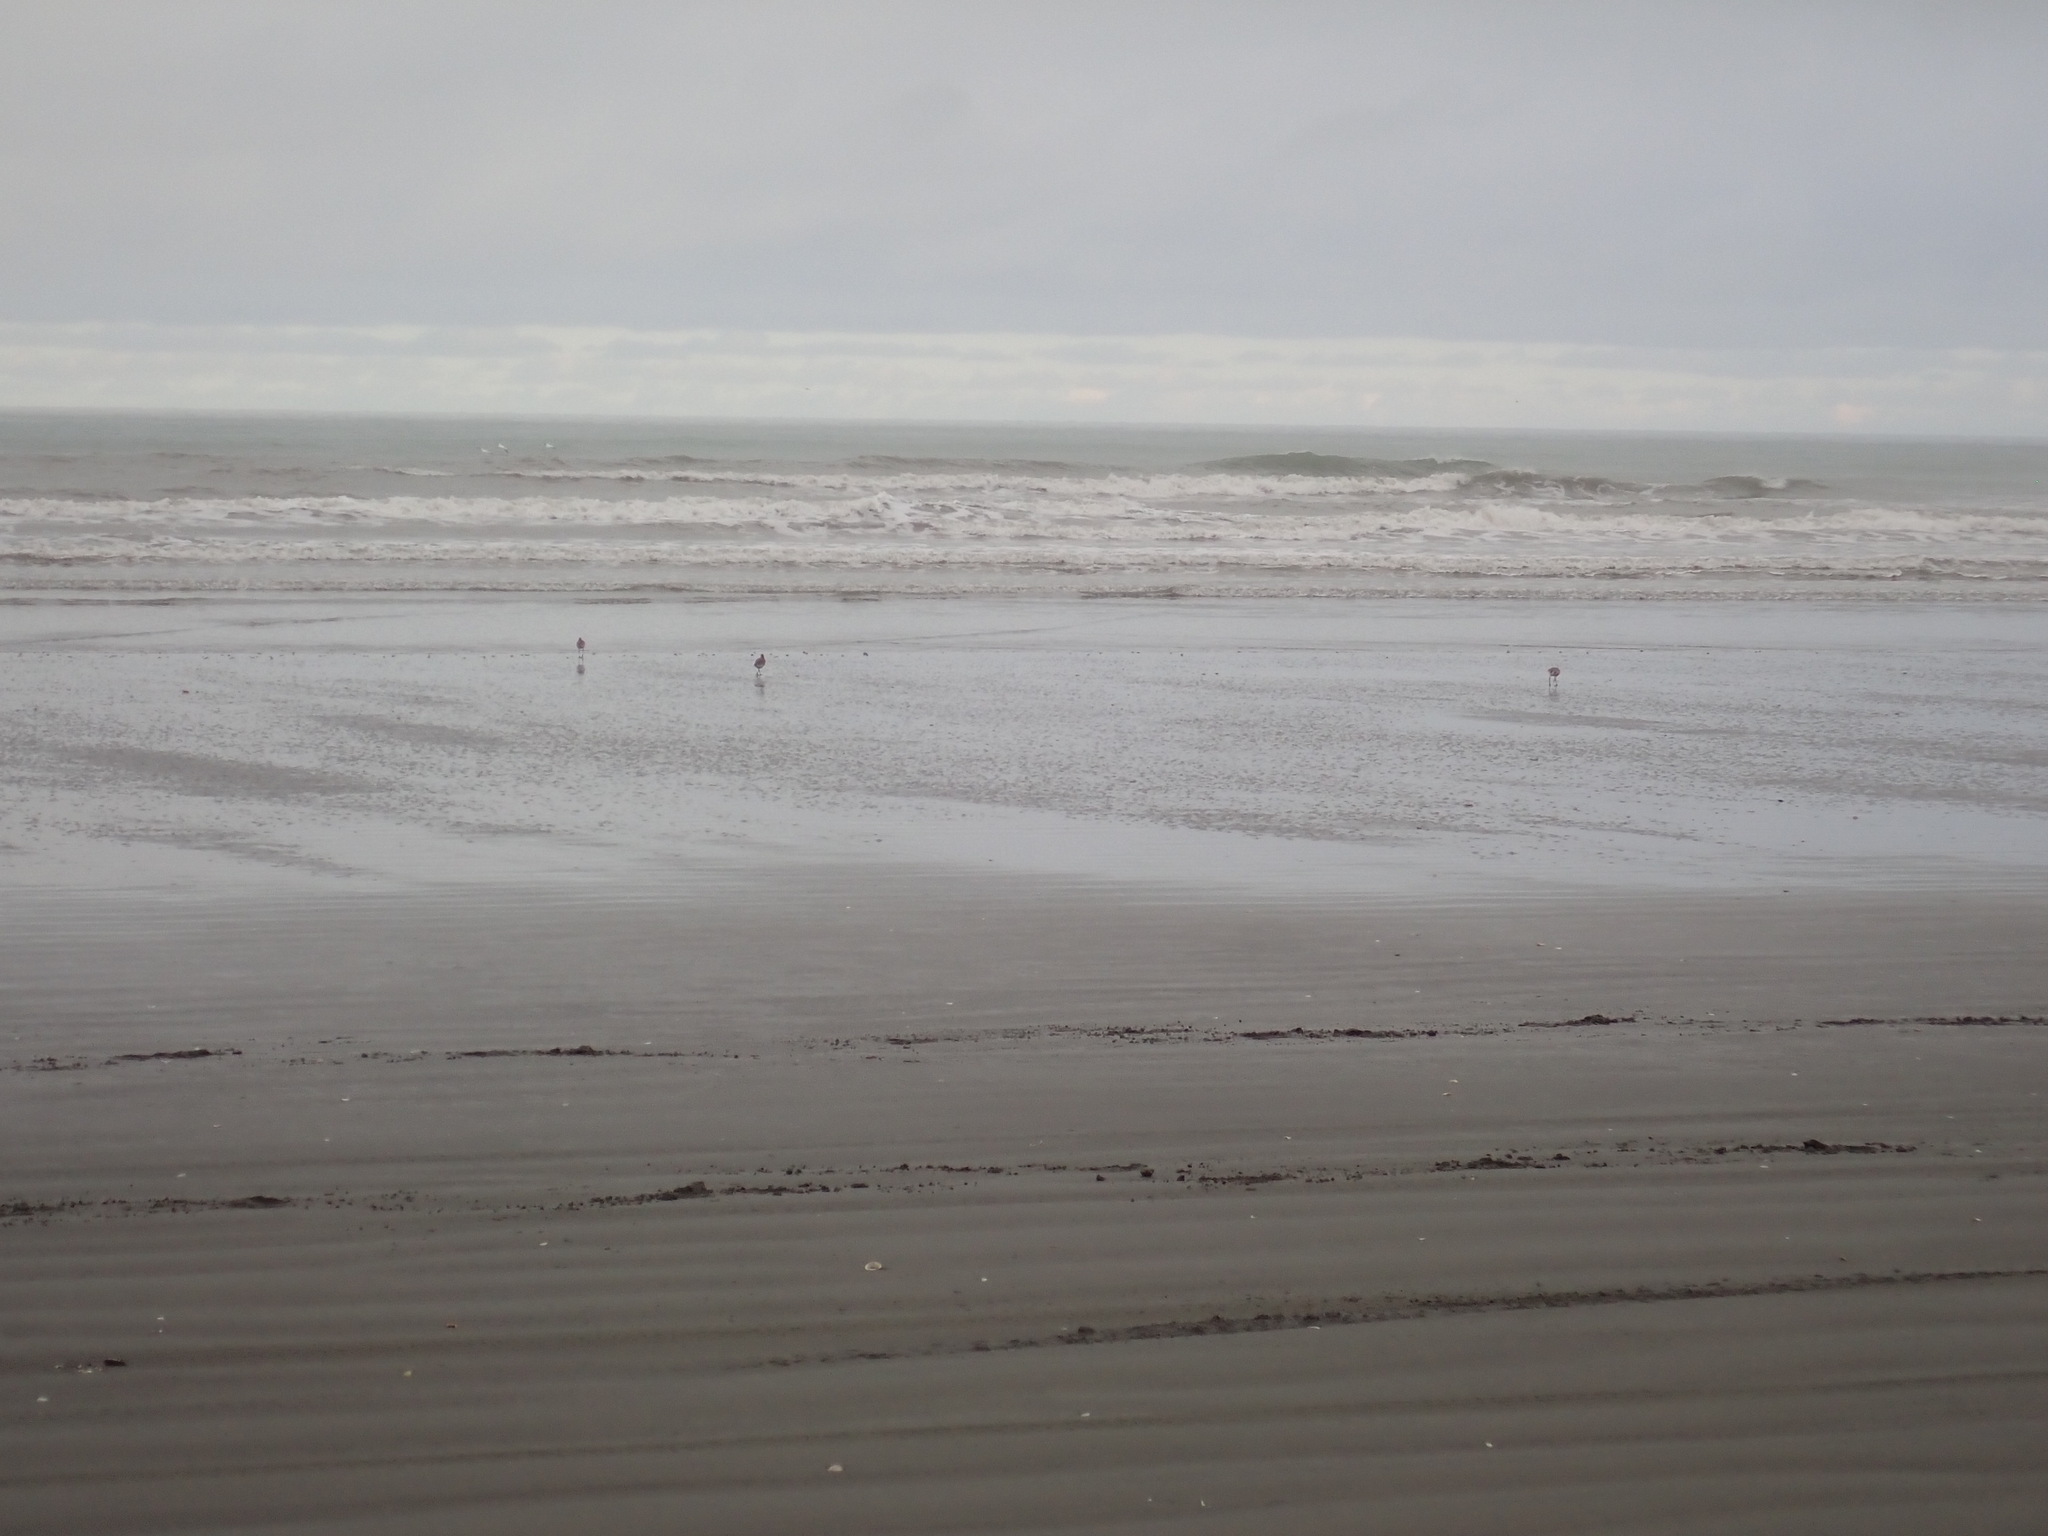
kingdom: Animalia
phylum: Chordata
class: Aves
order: Charadriiformes
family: Scolopacidae
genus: Limosa
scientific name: Limosa lapponica
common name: Bar-tailed godwit
